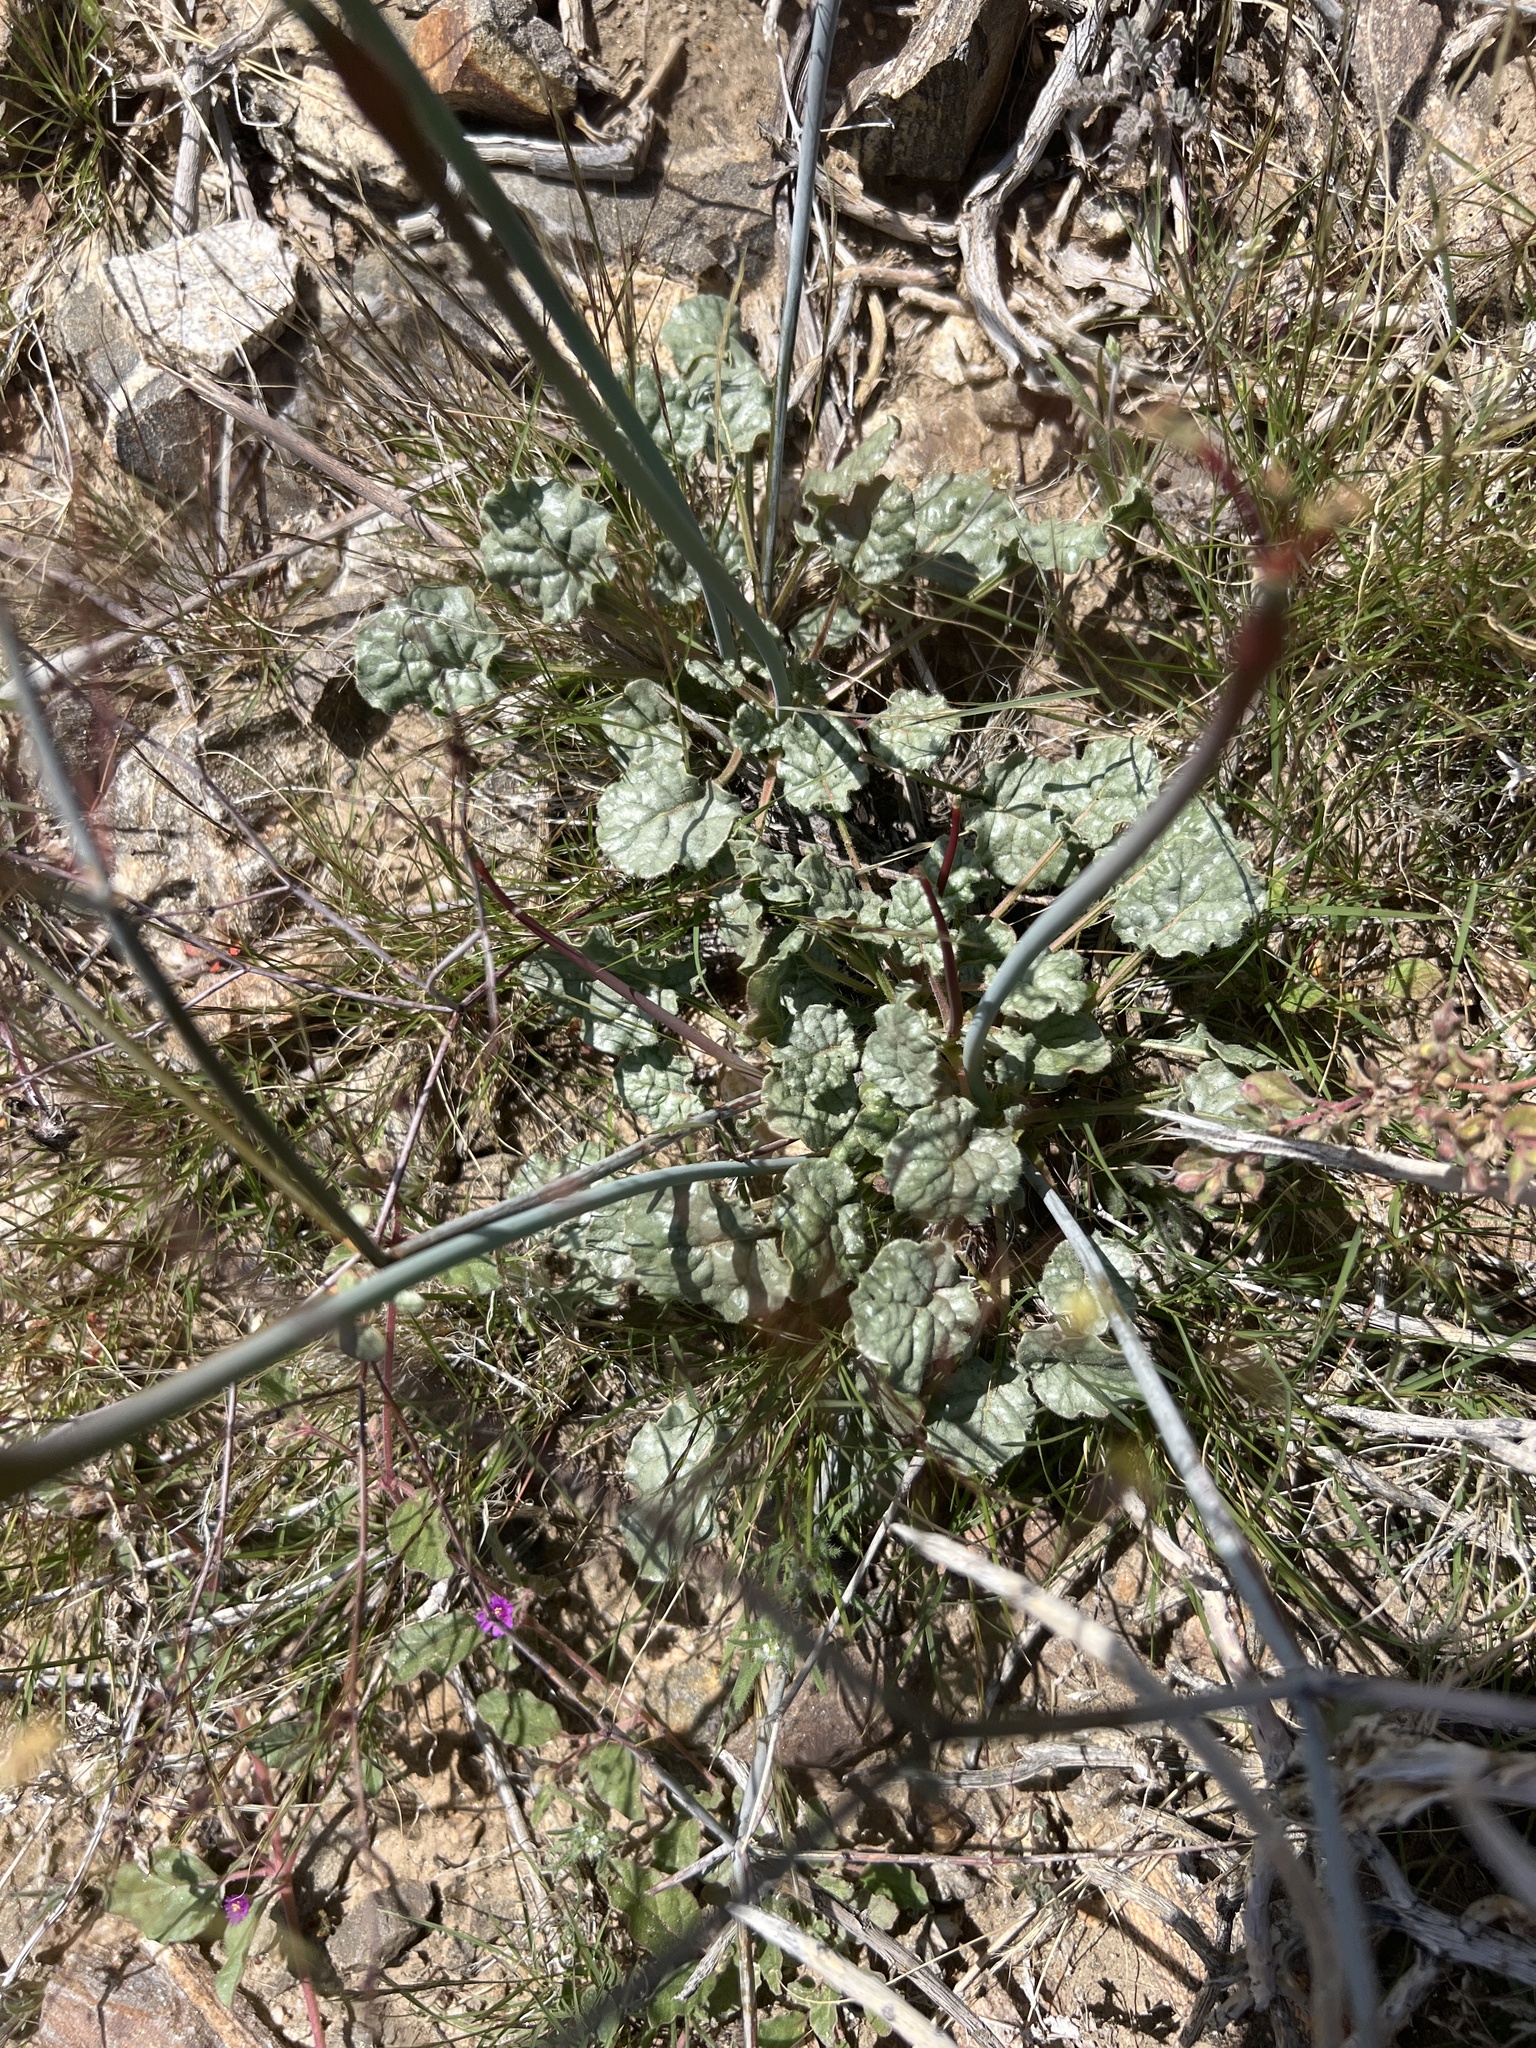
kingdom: Plantae
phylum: Tracheophyta
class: Magnoliopsida
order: Caryophyllales
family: Polygonaceae
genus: Eriogonum
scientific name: Eriogonum inflatum
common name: Desert trumpet
